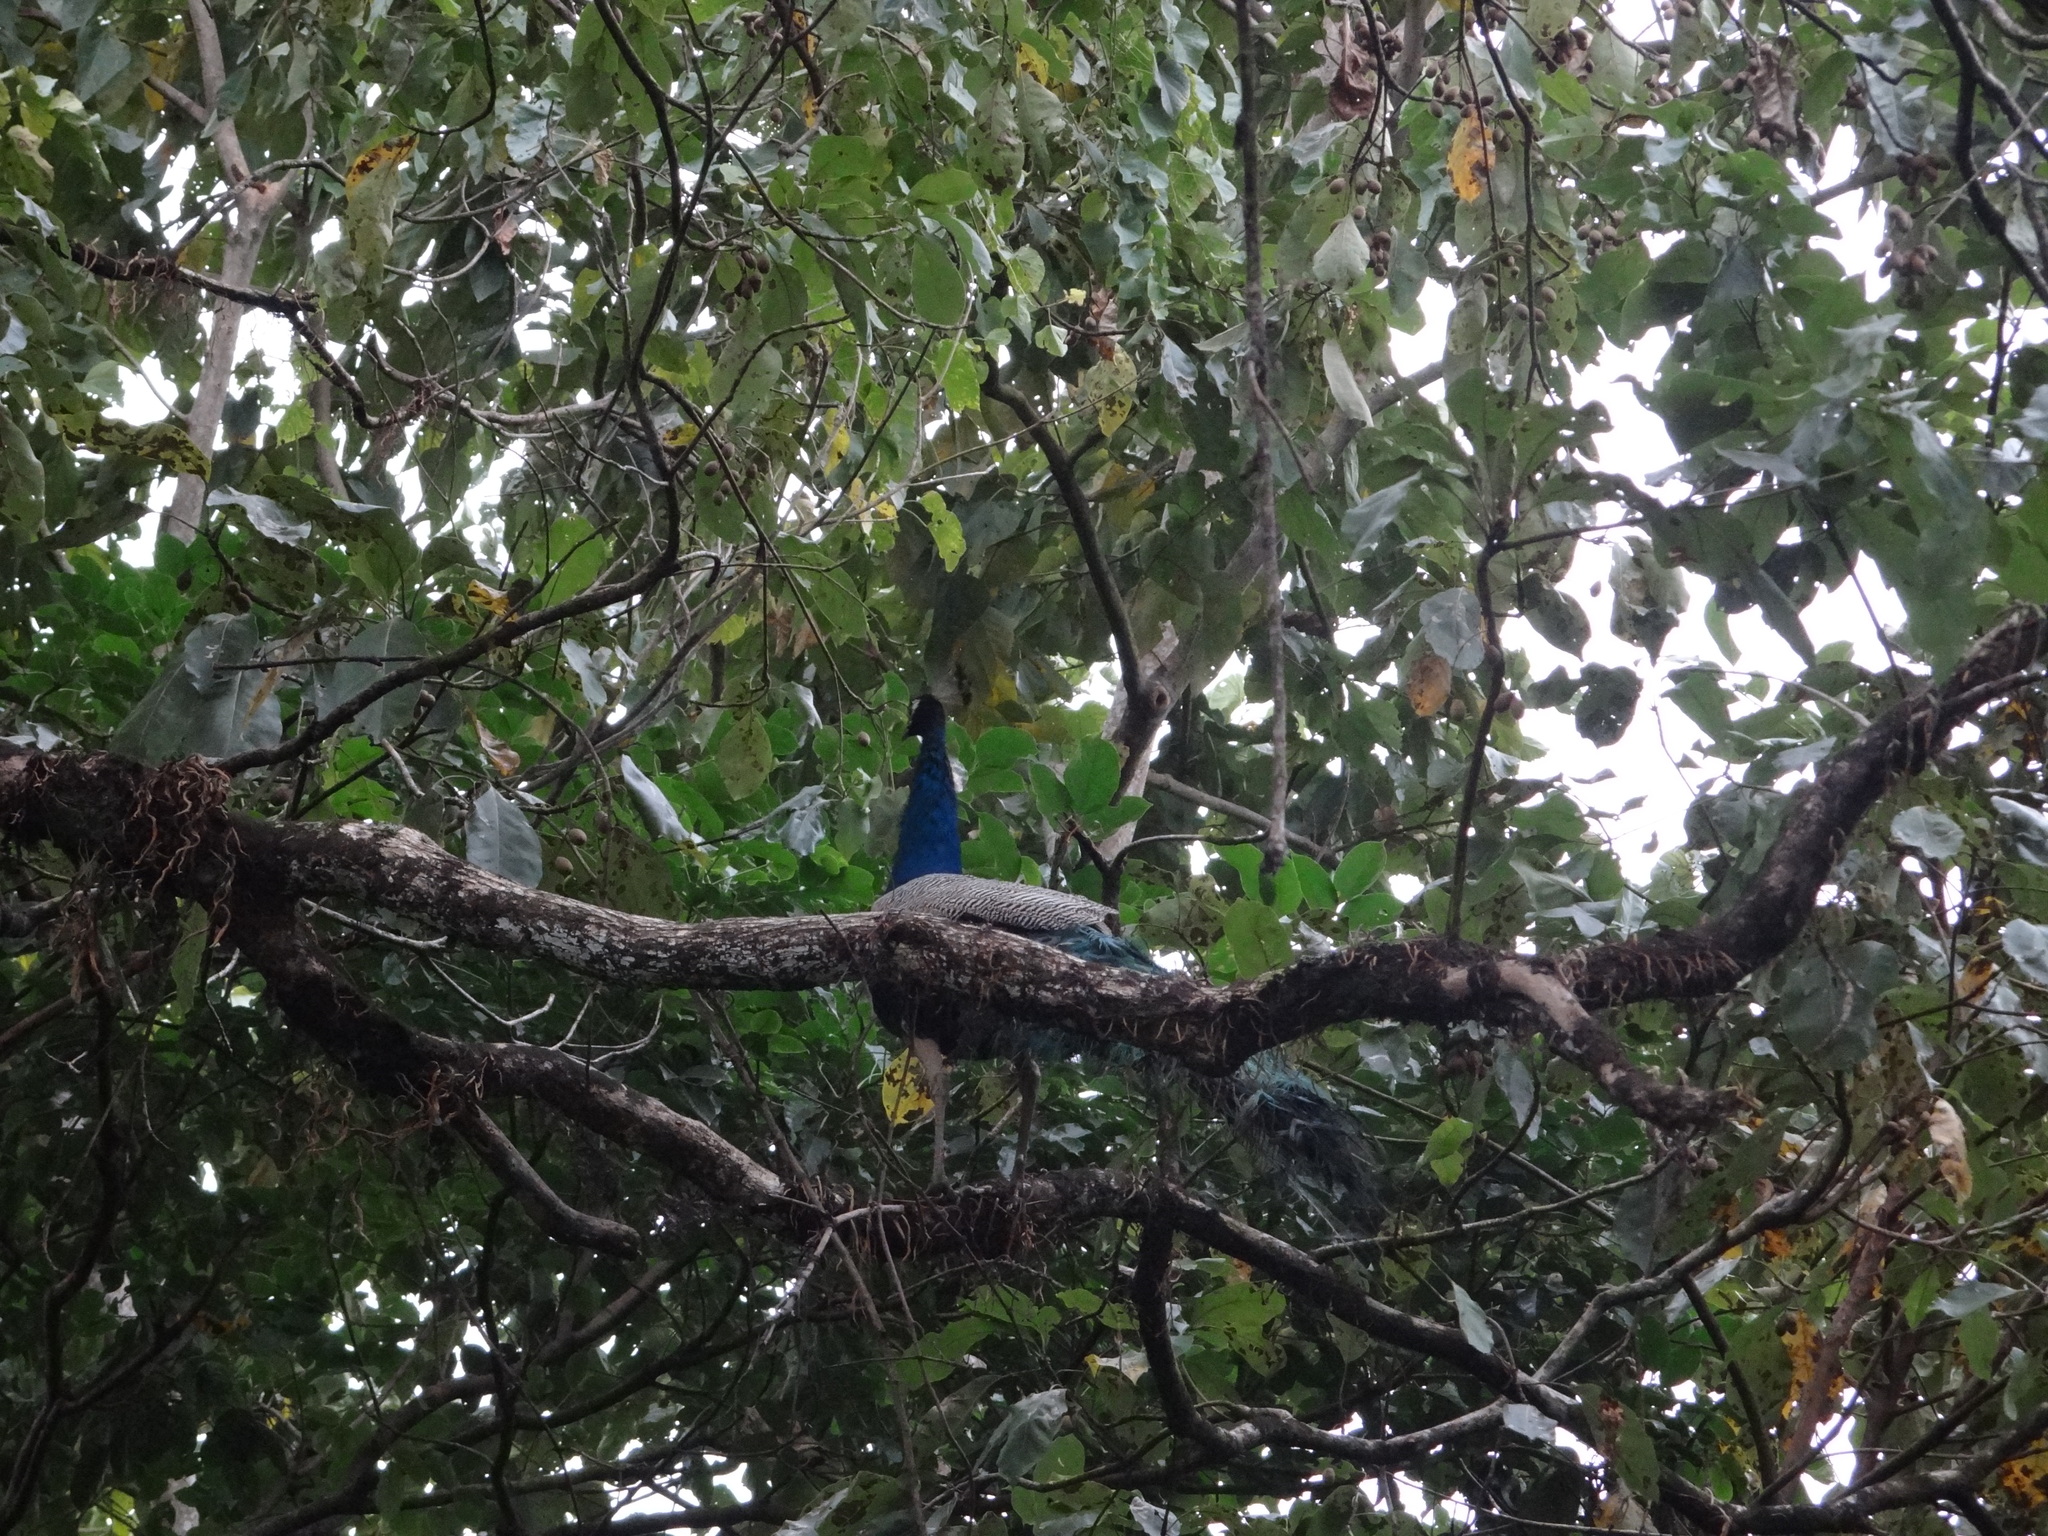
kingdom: Animalia
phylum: Chordata
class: Aves
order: Galliformes
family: Phasianidae
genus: Pavo
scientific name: Pavo cristatus
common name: Indian peafowl
